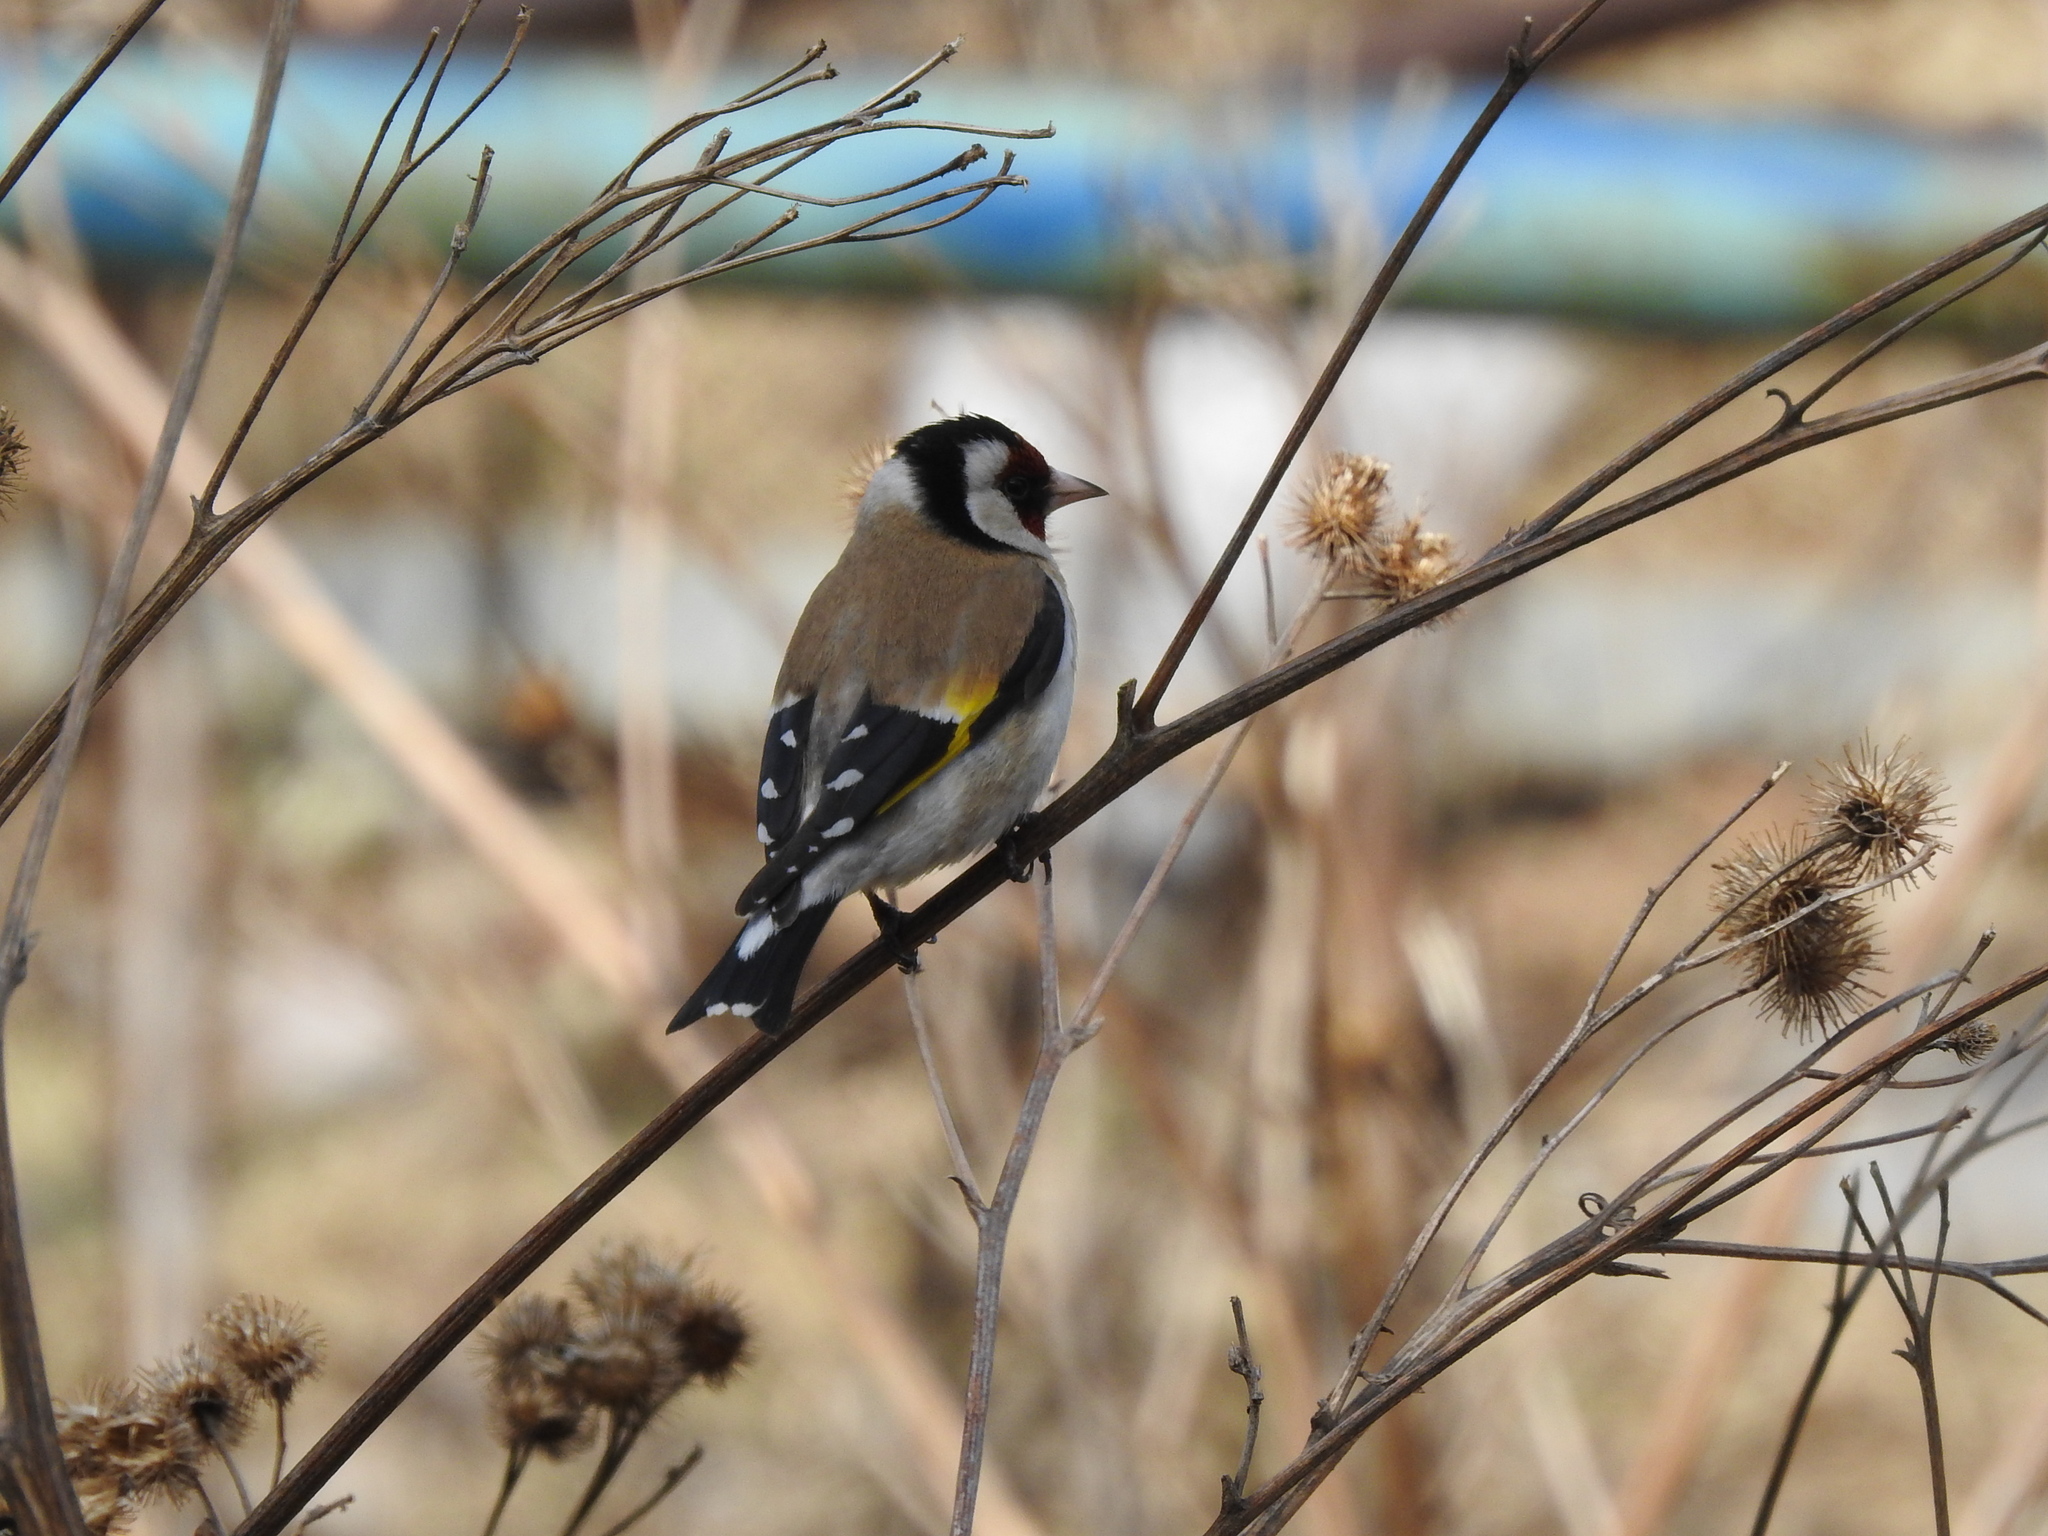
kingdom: Animalia
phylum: Chordata
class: Aves
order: Passeriformes
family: Fringillidae
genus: Carduelis
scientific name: Carduelis carduelis
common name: European goldfinch
